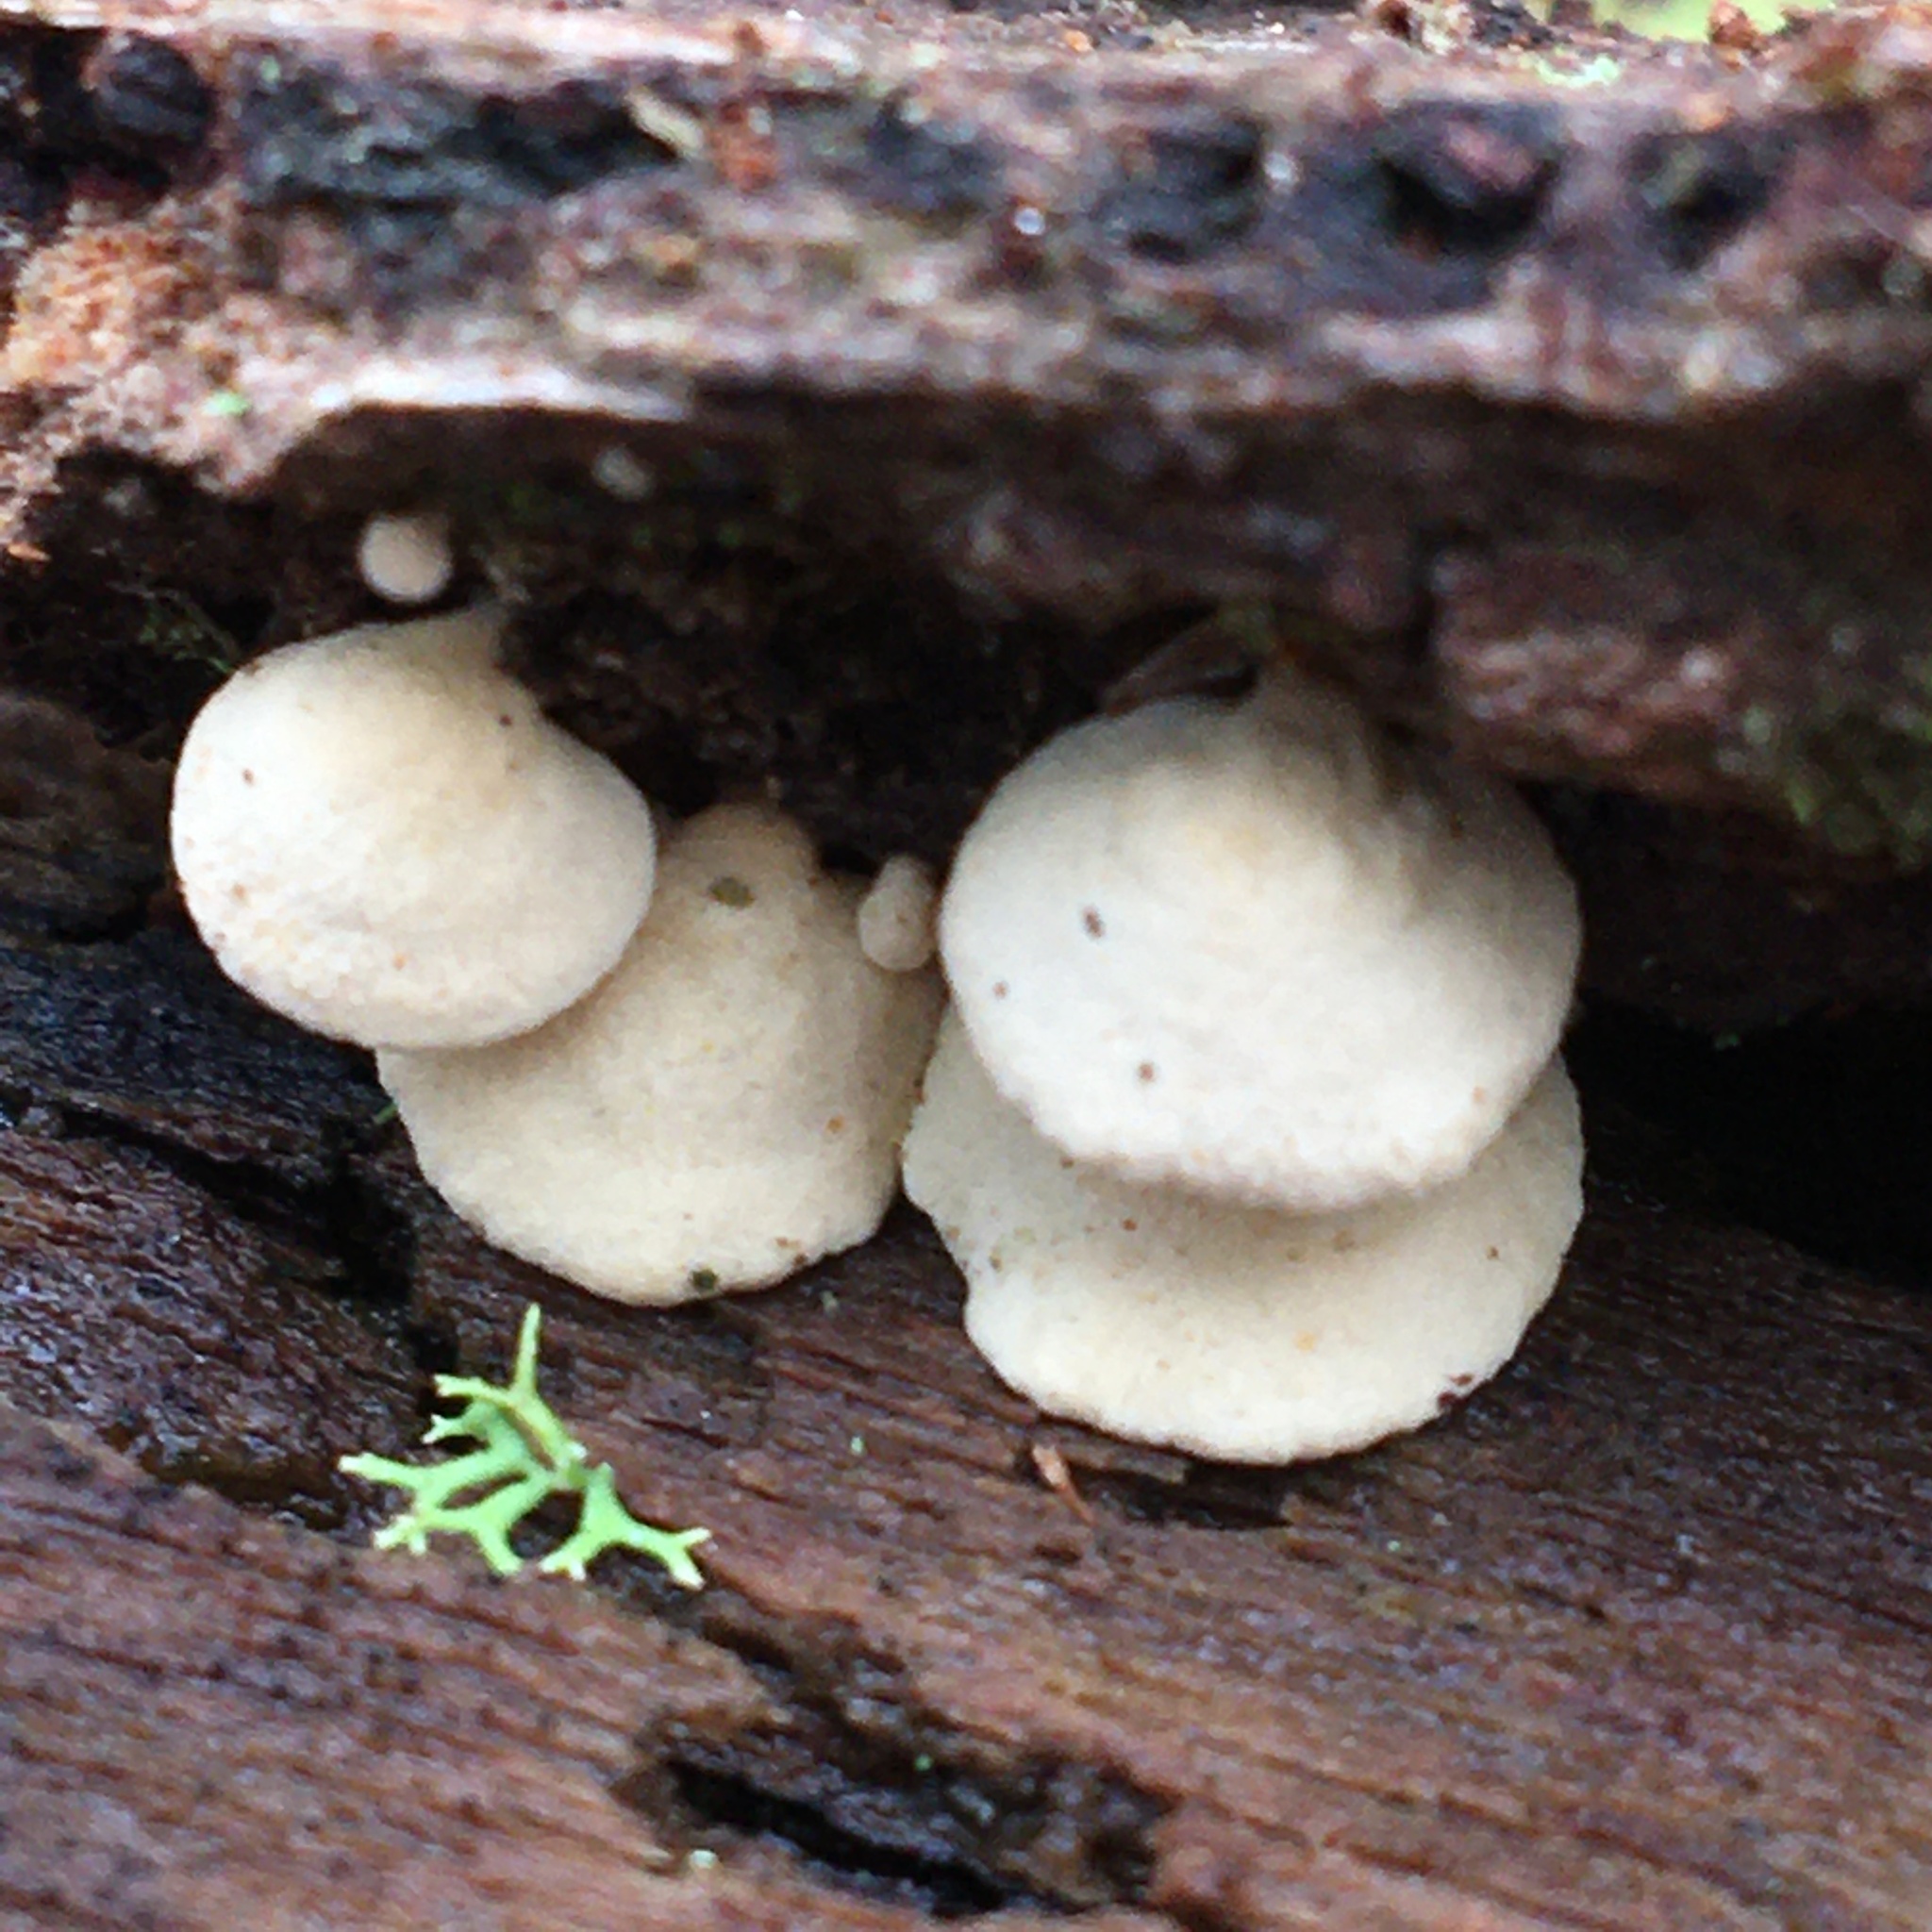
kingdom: Fungi
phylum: Basidiomycota
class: Agaricomycetes
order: Agaricales
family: Mycenaceae
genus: Panellus
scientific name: Panellus pusillus
